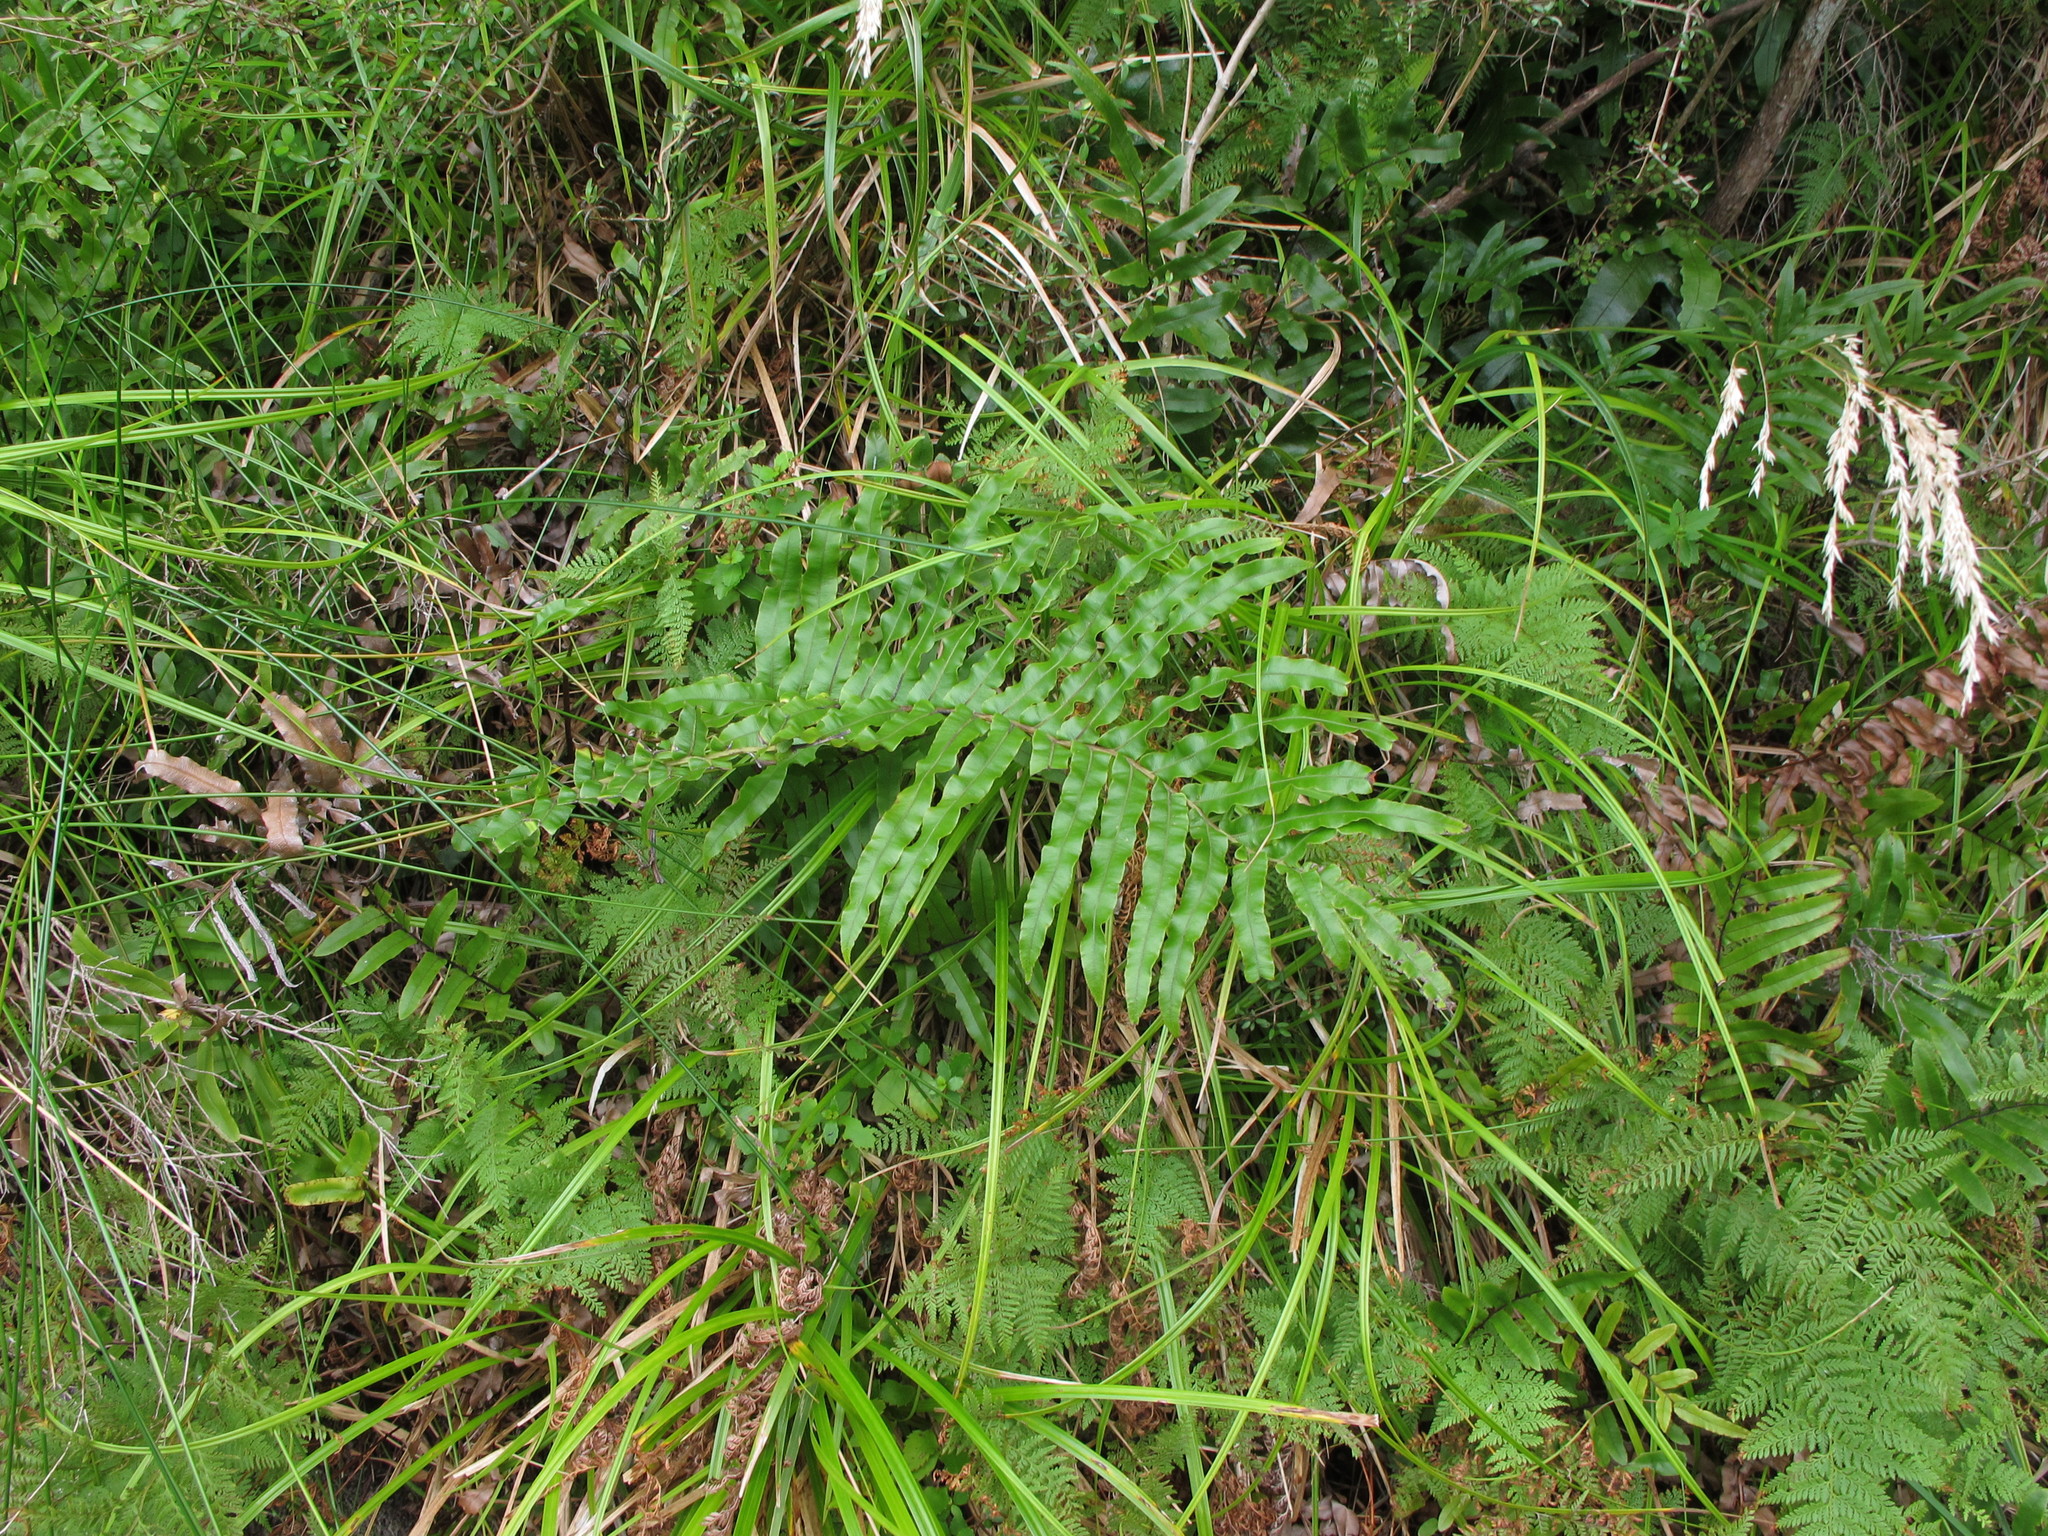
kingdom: Plantae
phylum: Tracheophyta
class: Polypodiopsida
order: Polypodiales
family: Blechnaceae
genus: Parablechnum
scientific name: Parablechnum novae-zelandiae
